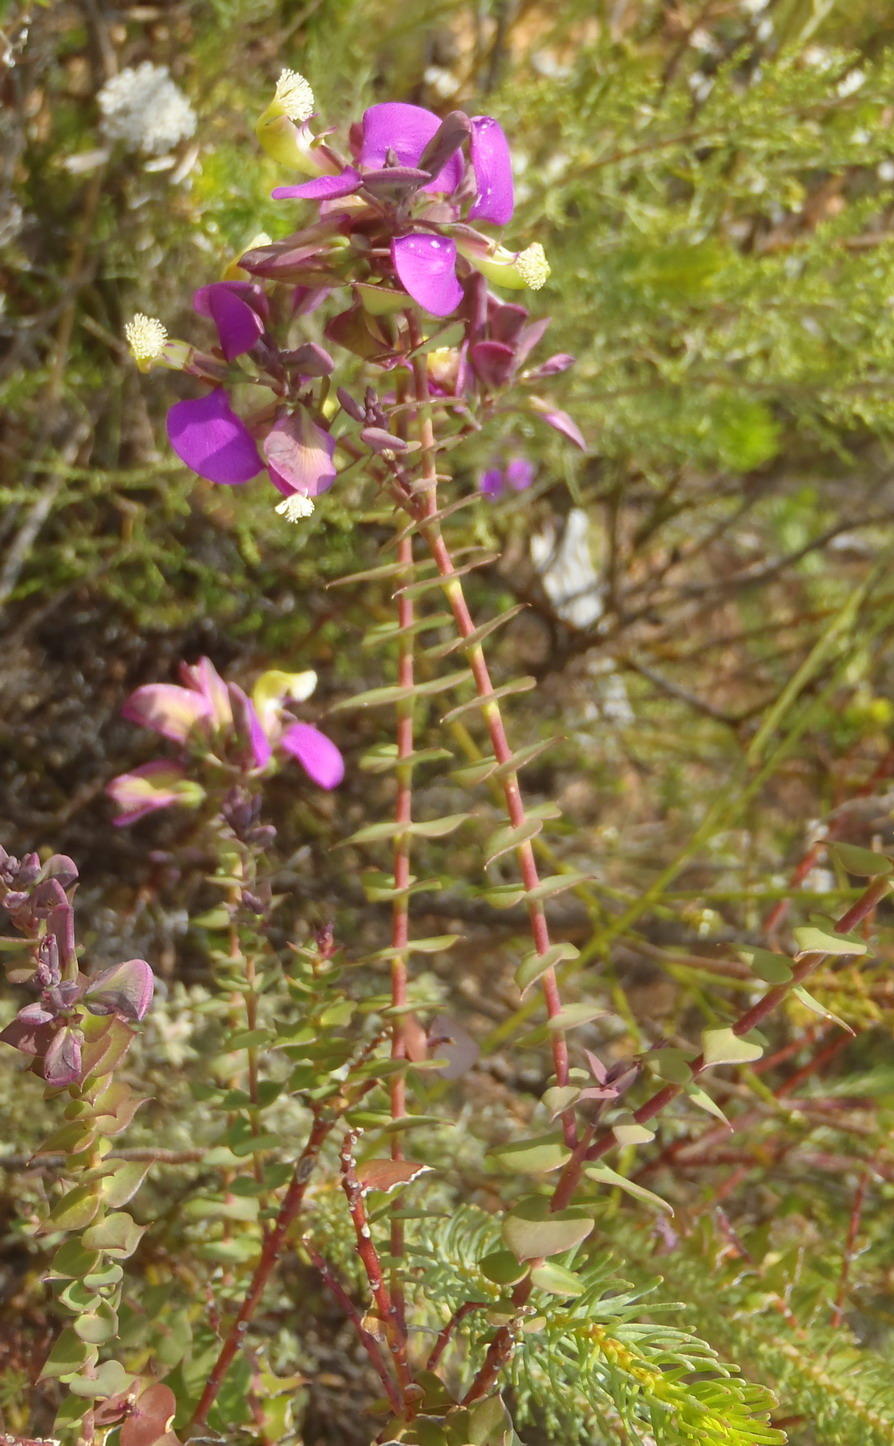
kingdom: Plantae
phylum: Tracheophyta
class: Magnoliopsida
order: Fabales
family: Polygalaceae
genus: Polygala
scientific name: Polygala fruticosa
